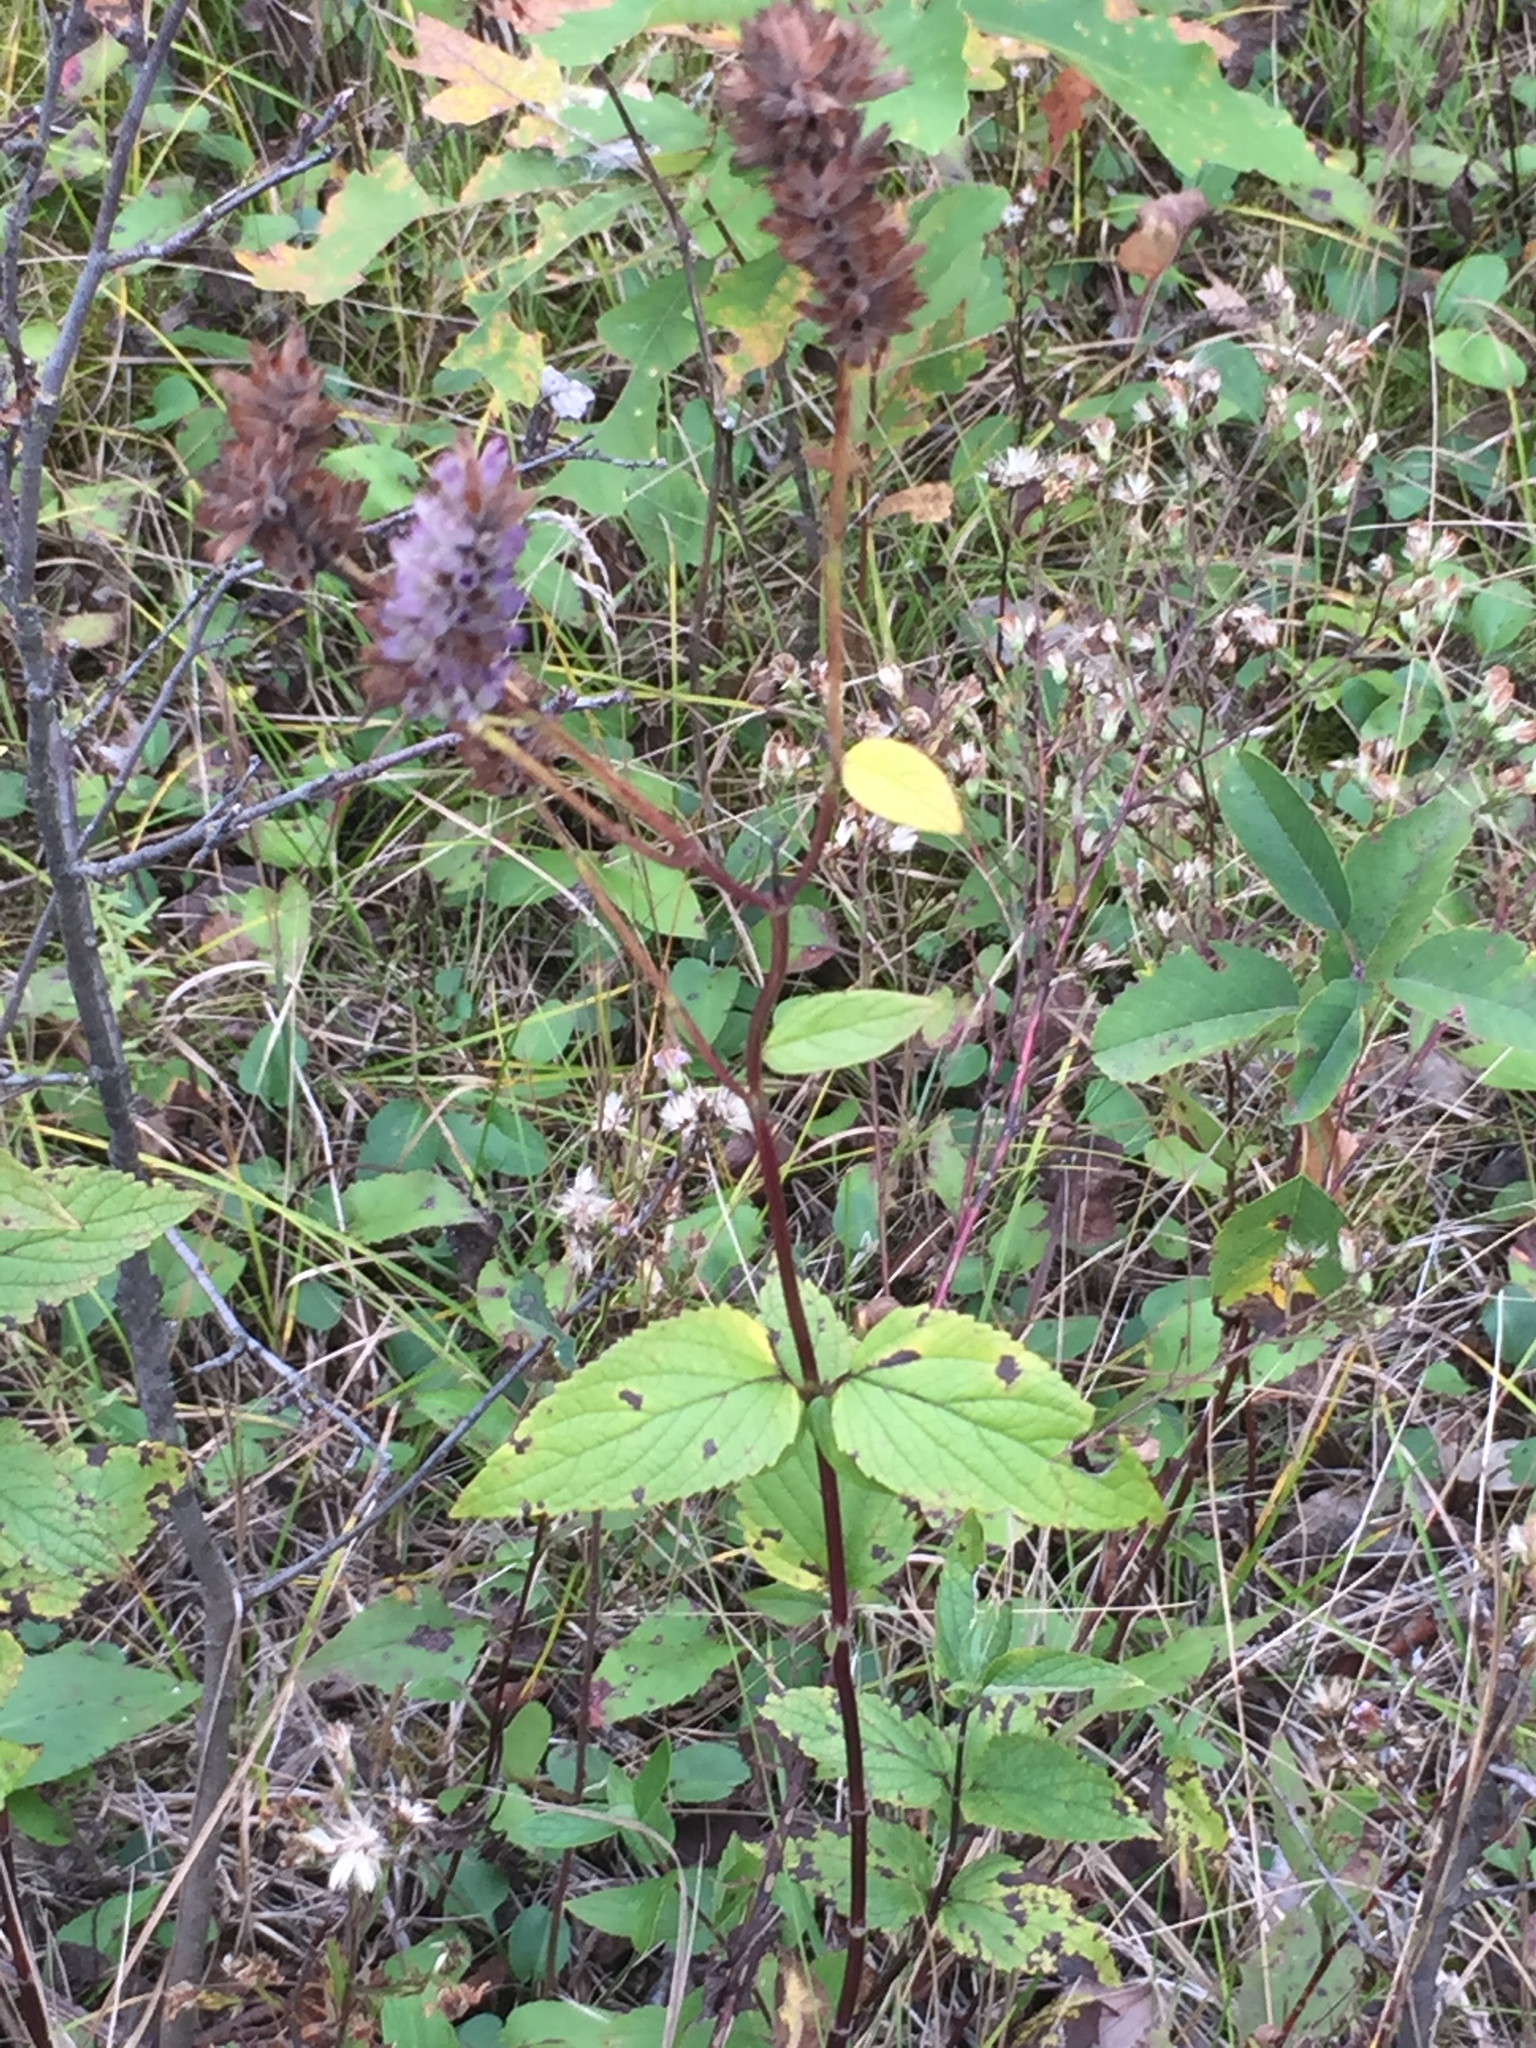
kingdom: Plantae
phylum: Tracheophyta
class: Magnoliopsida
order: Lamiales
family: Lamiaceae
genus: Agastache
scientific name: Agastache foeniculum
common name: Anise hyssop
